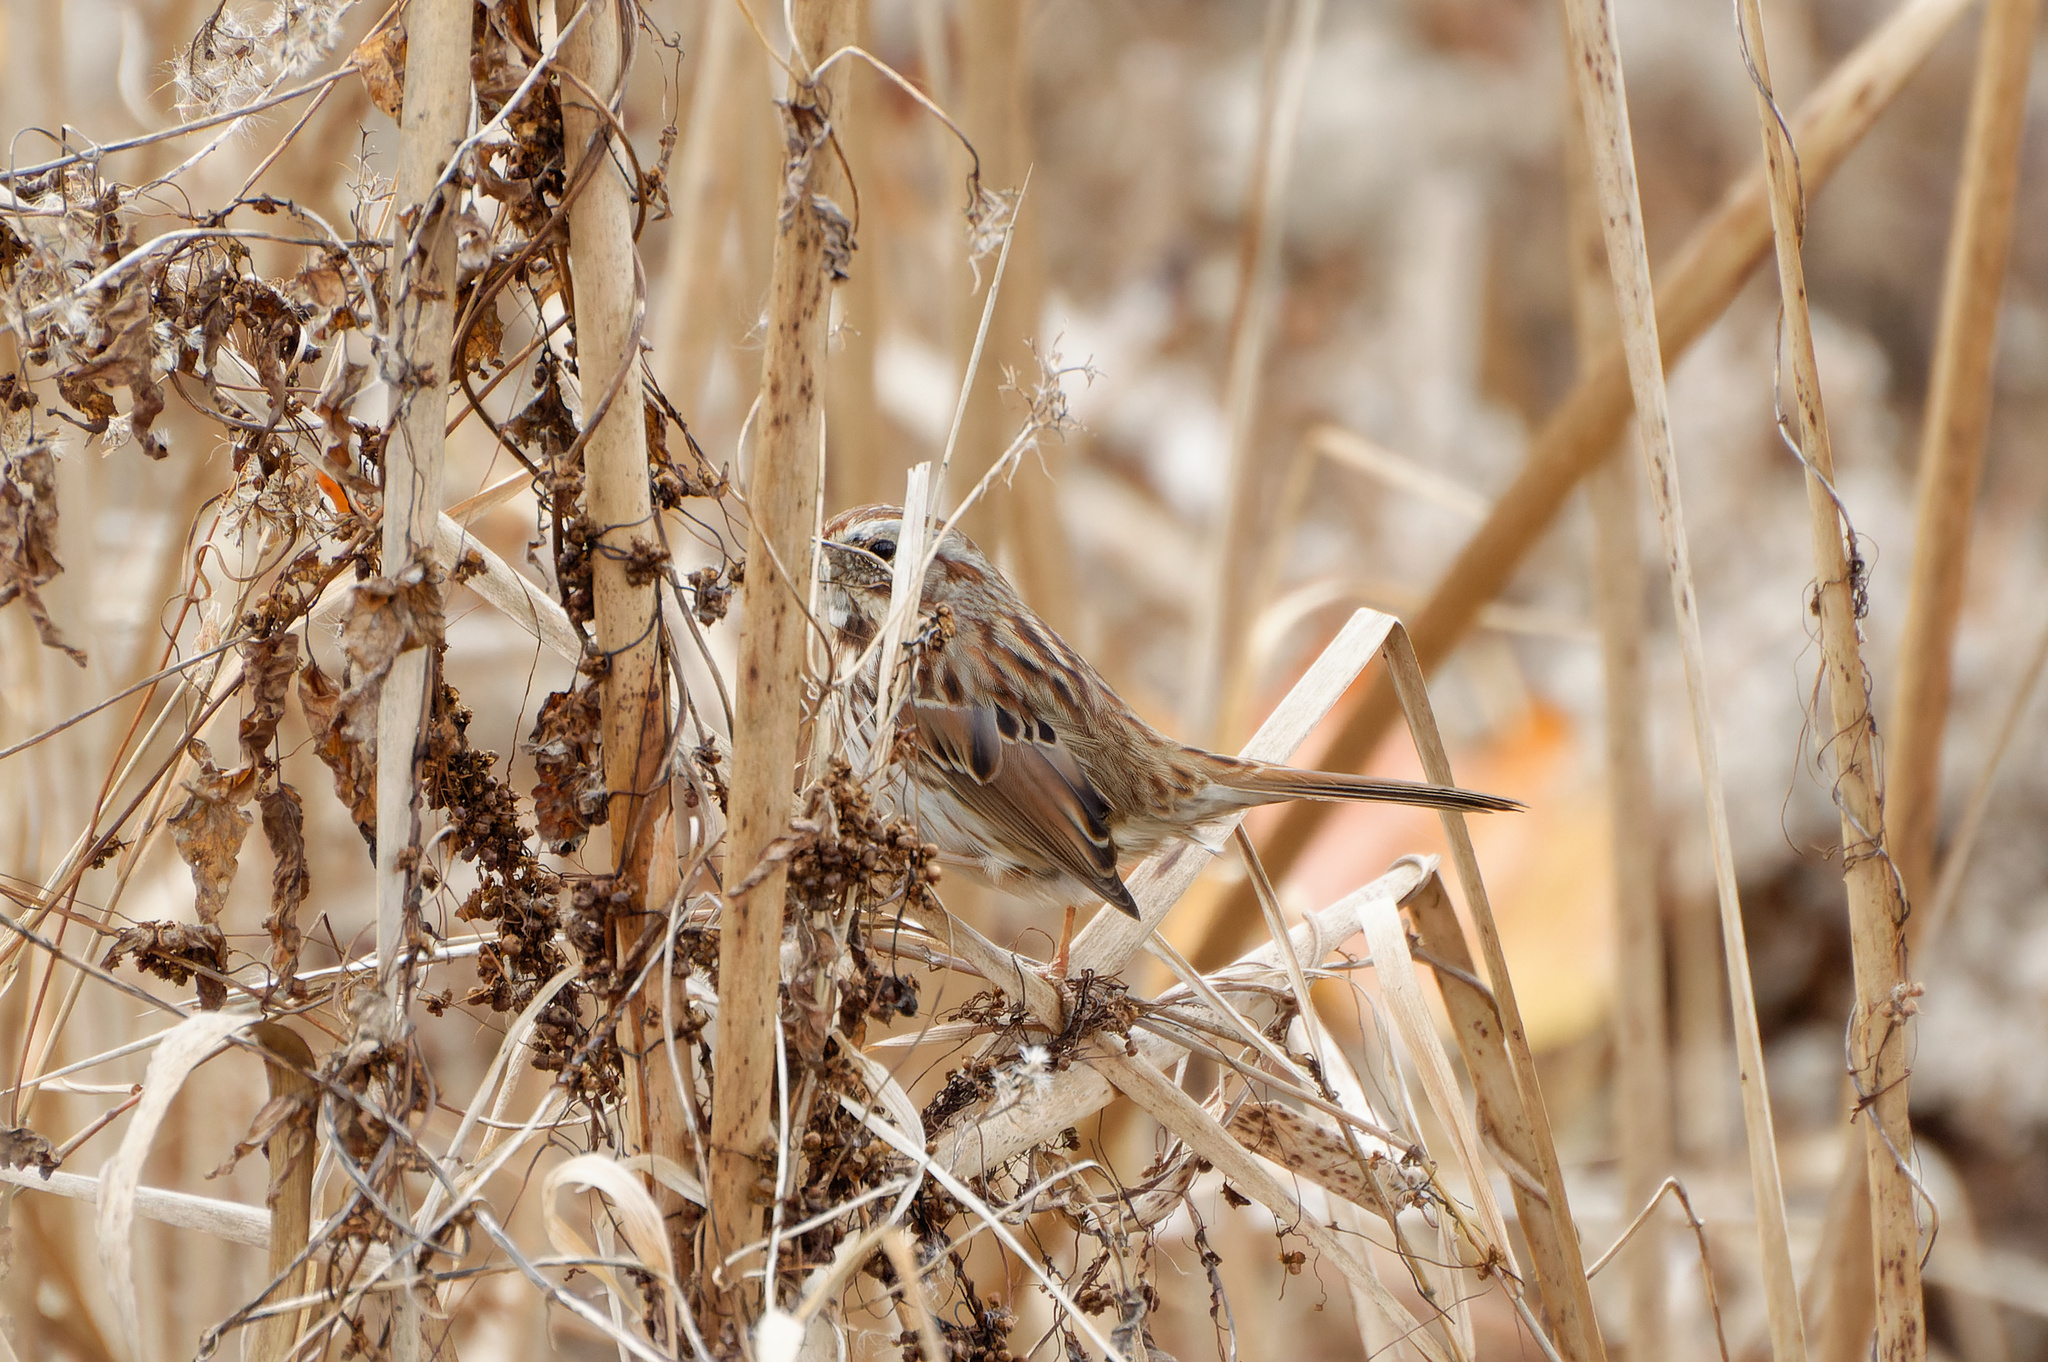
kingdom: Animalia
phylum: Chordata
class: Aves
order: Passeriformes
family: Passerellidae
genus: Melospiza
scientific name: Melospiza melodia
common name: Song sparrow
